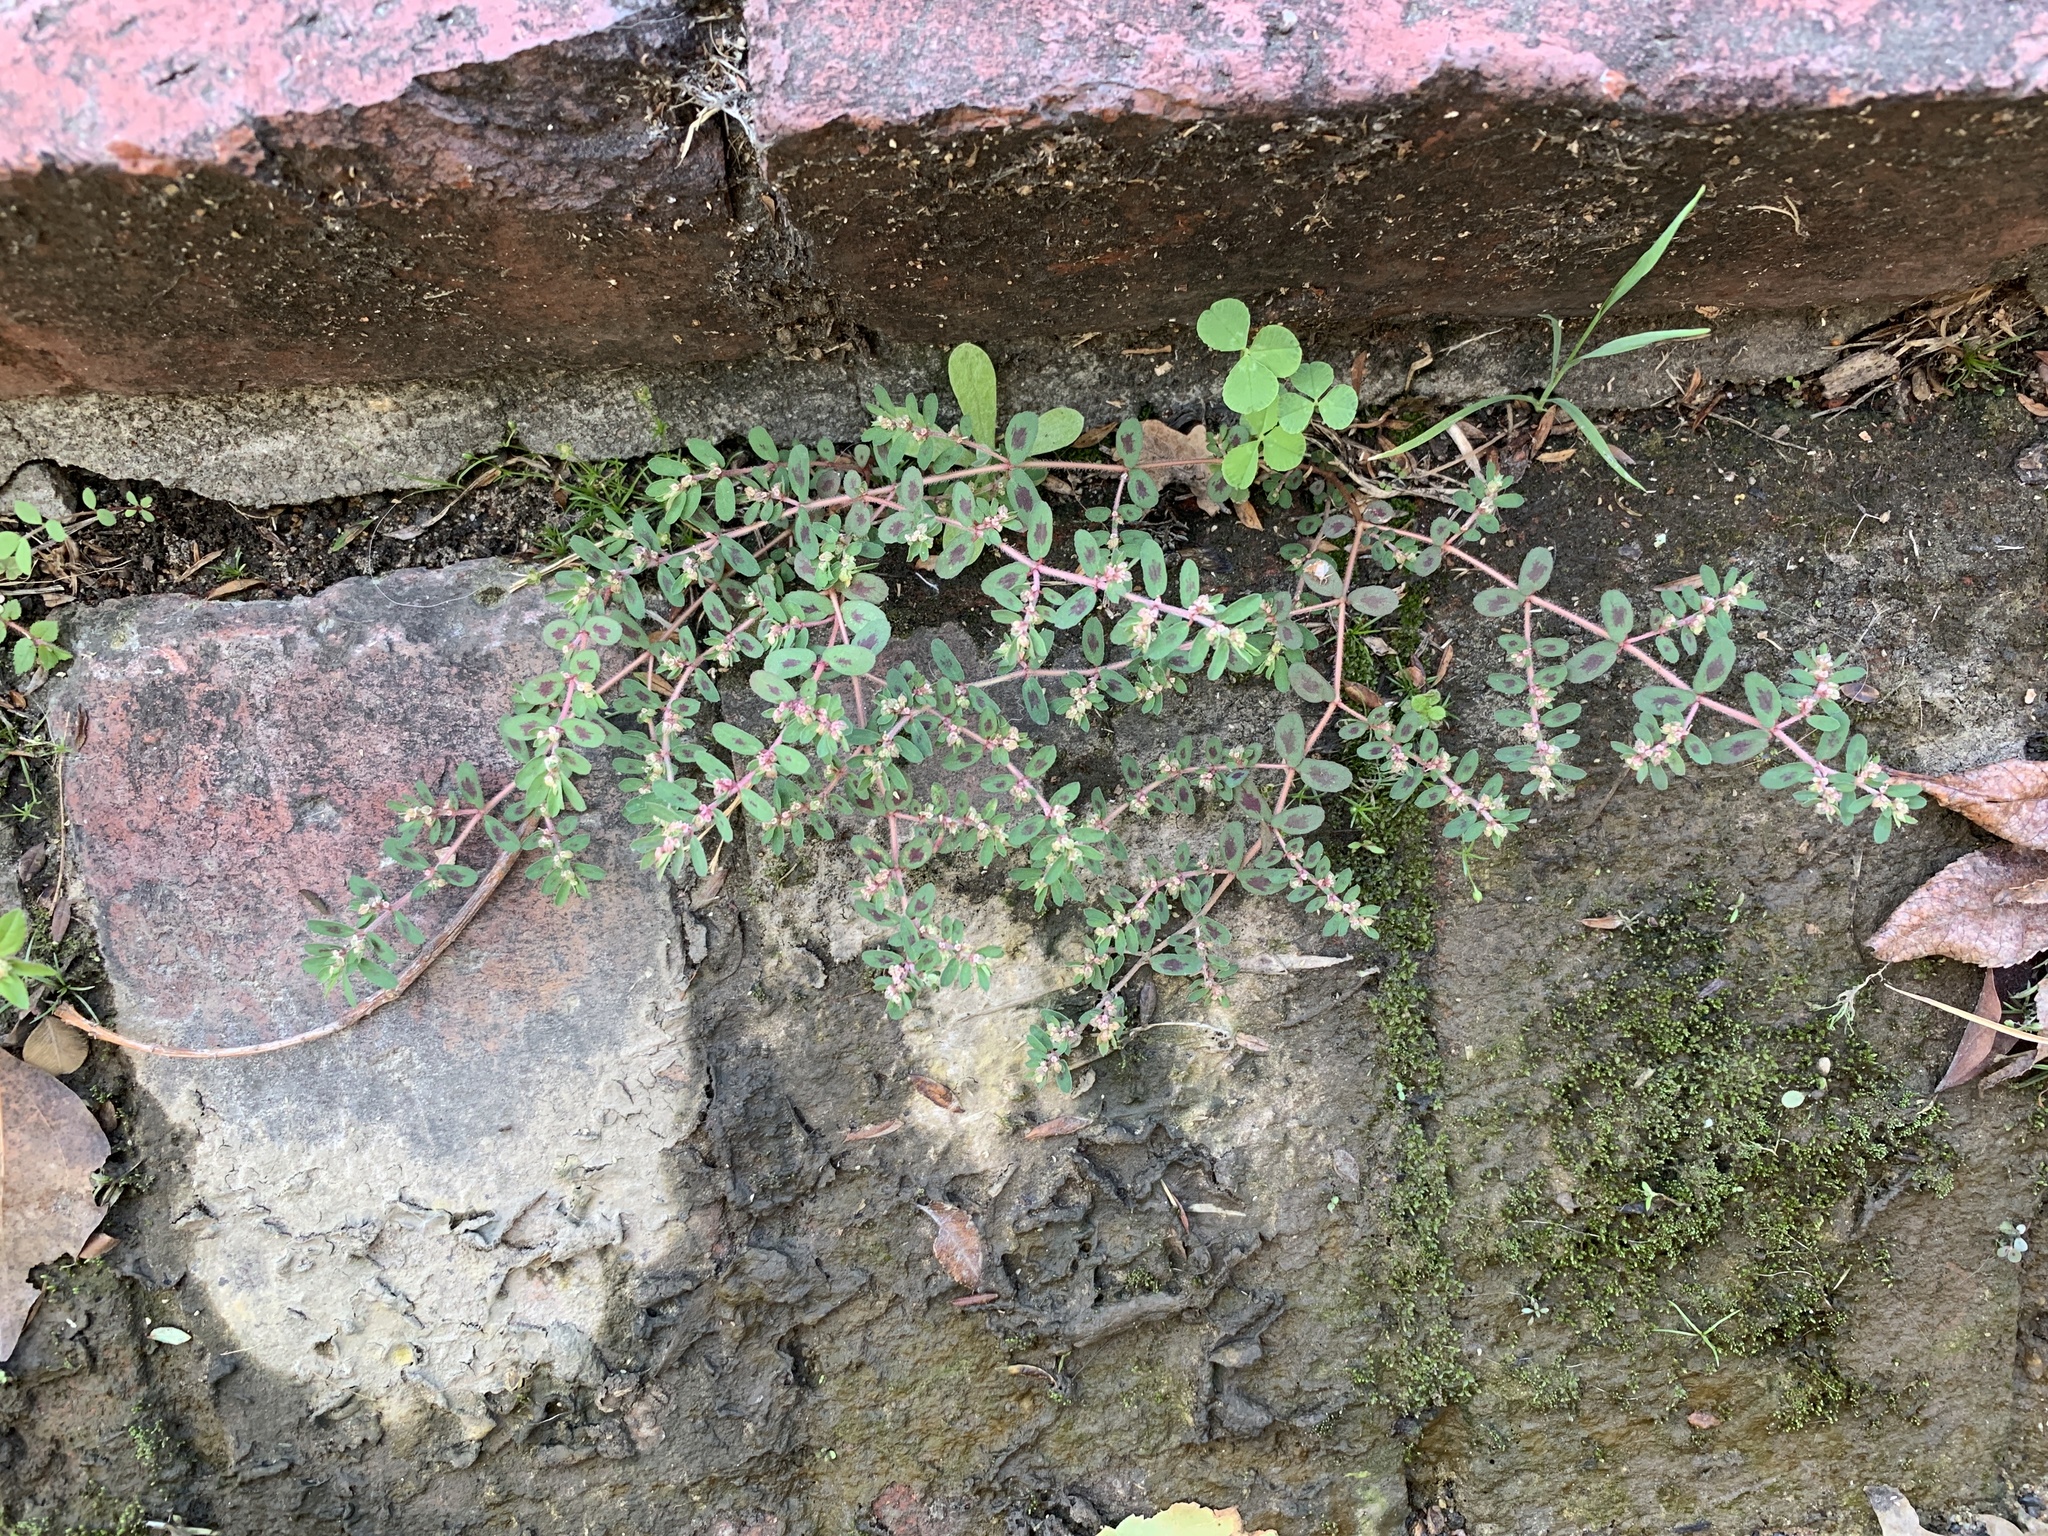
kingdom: Plantae
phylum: Tracheophyta
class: Magnoliopsida
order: Malpighiales
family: Euphorbiaceae
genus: Euphorbia
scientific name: Euphorbia maculata
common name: Spotted spurge
